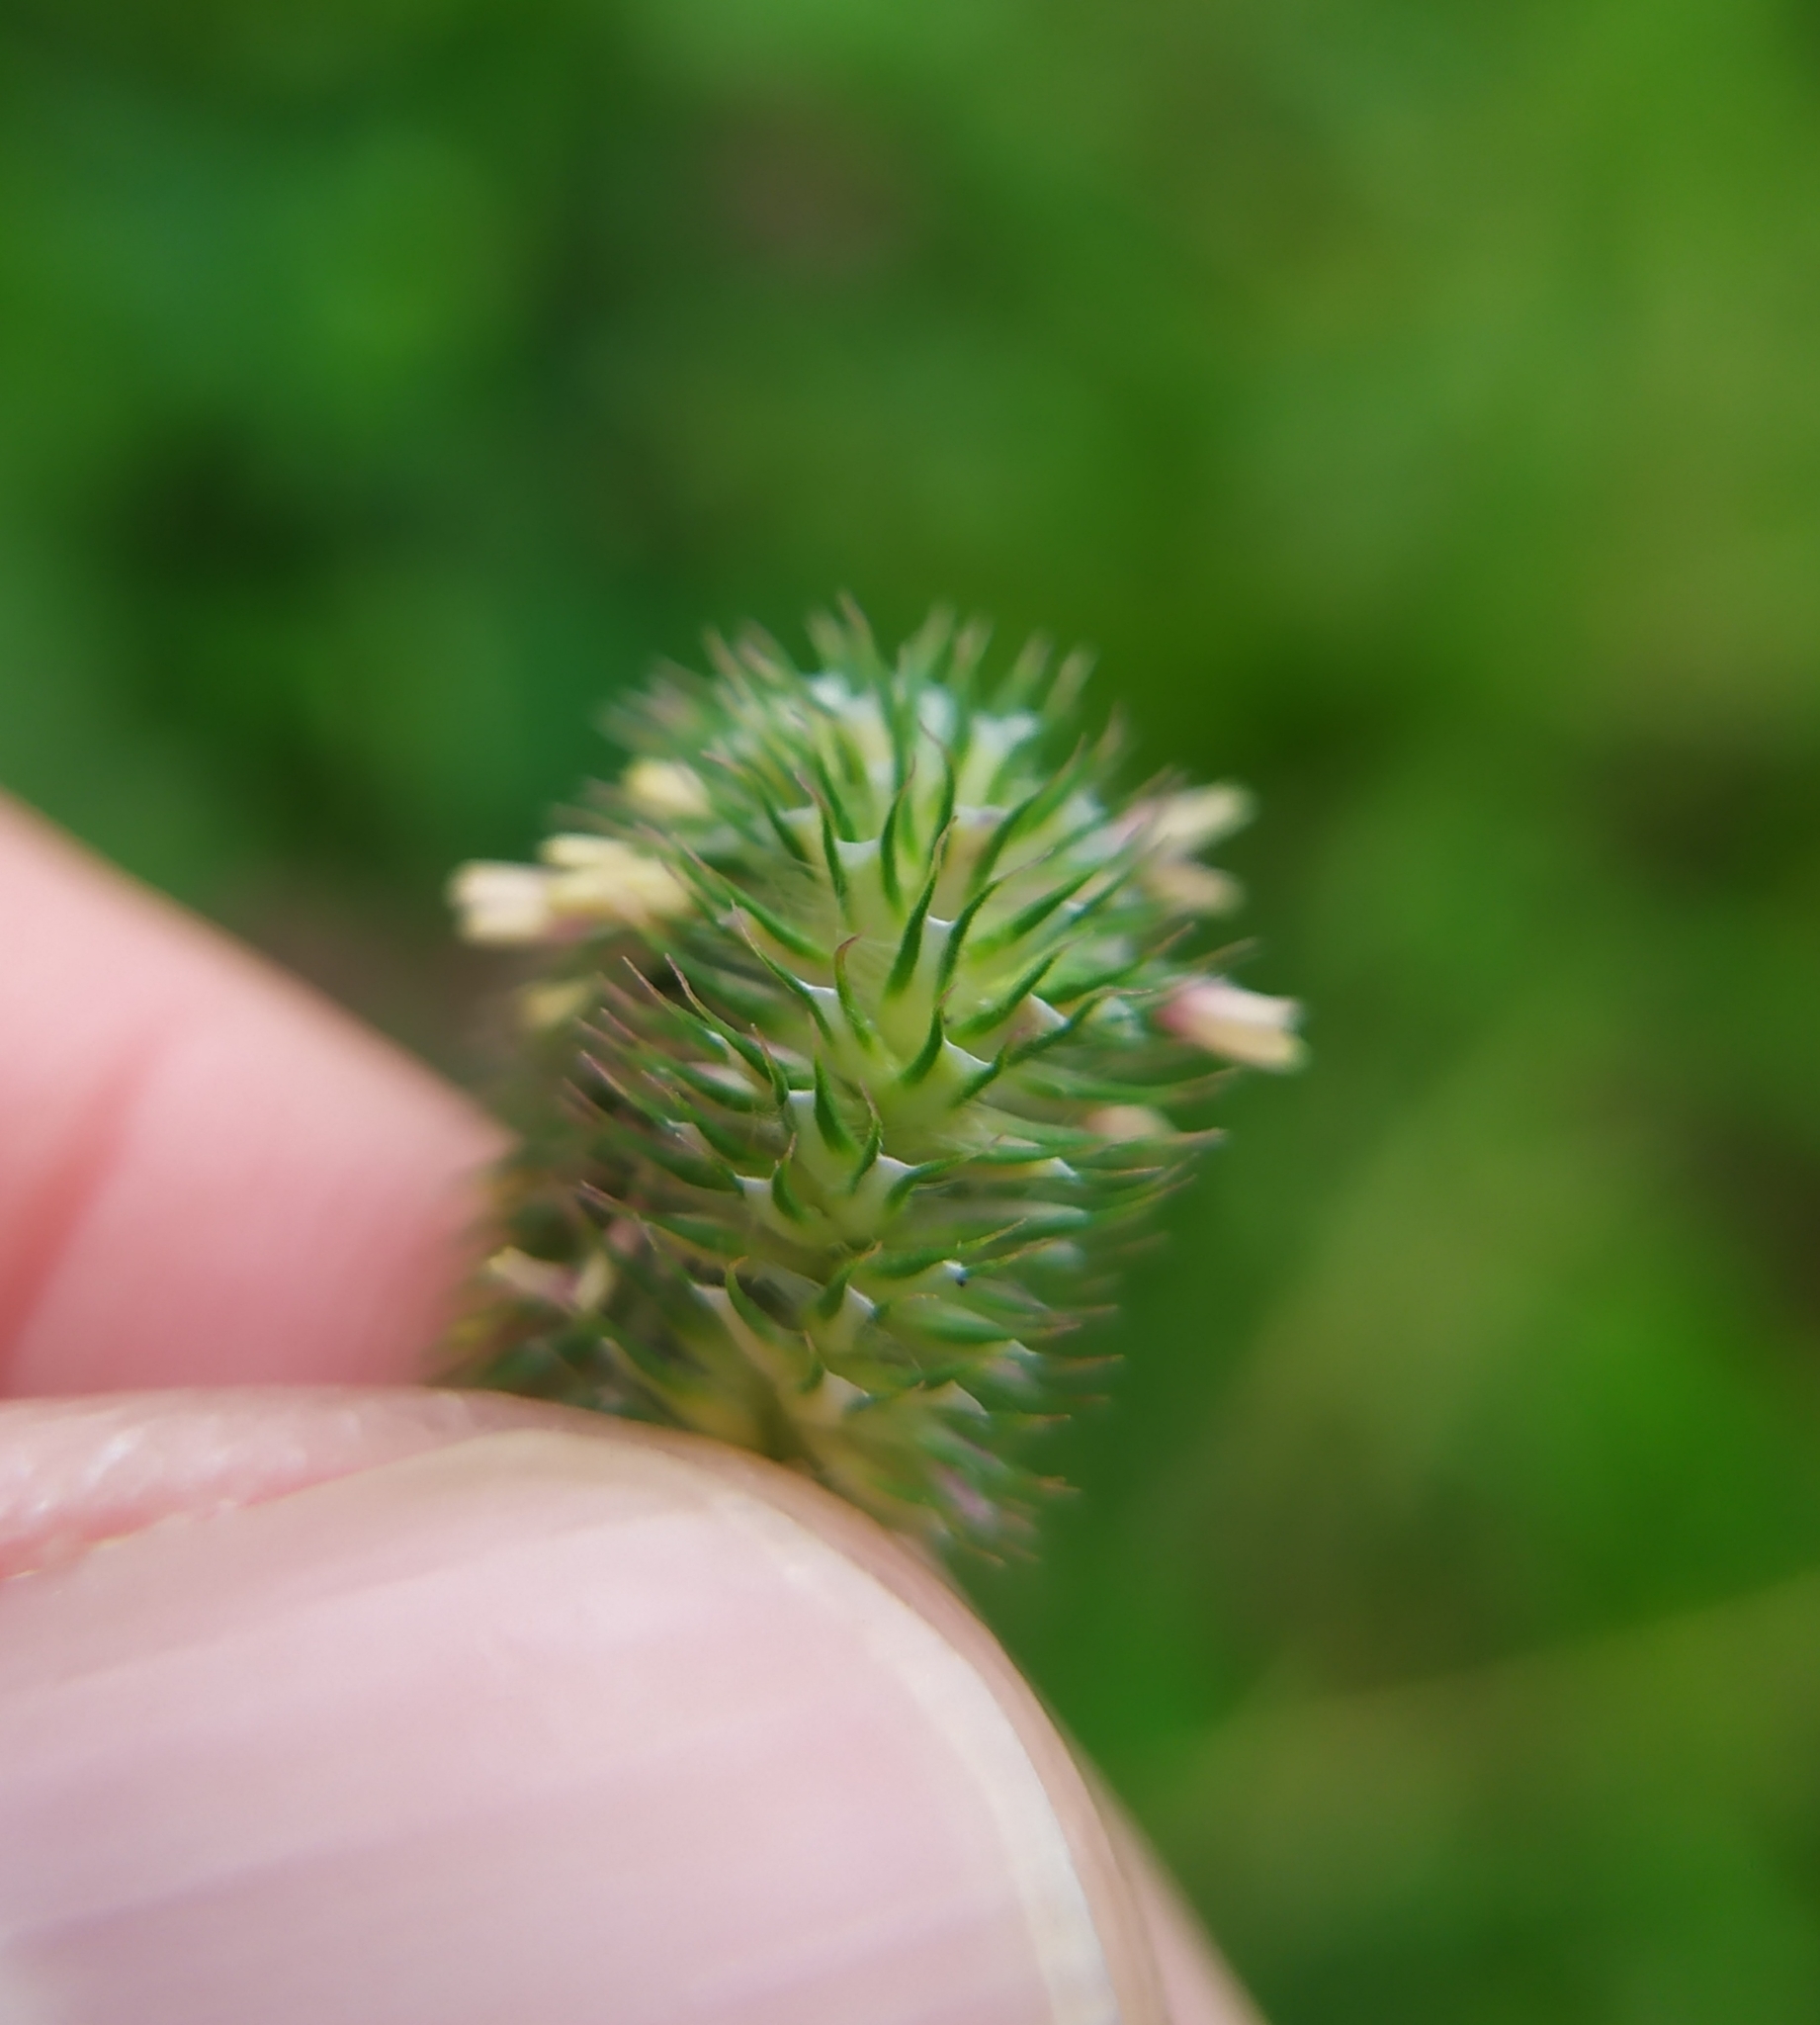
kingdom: Plantae
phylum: Tracheophyta
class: Liliopsida
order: Poales
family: Poaceae
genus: Phleum
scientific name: Phleum pratense
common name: Timothy grass
